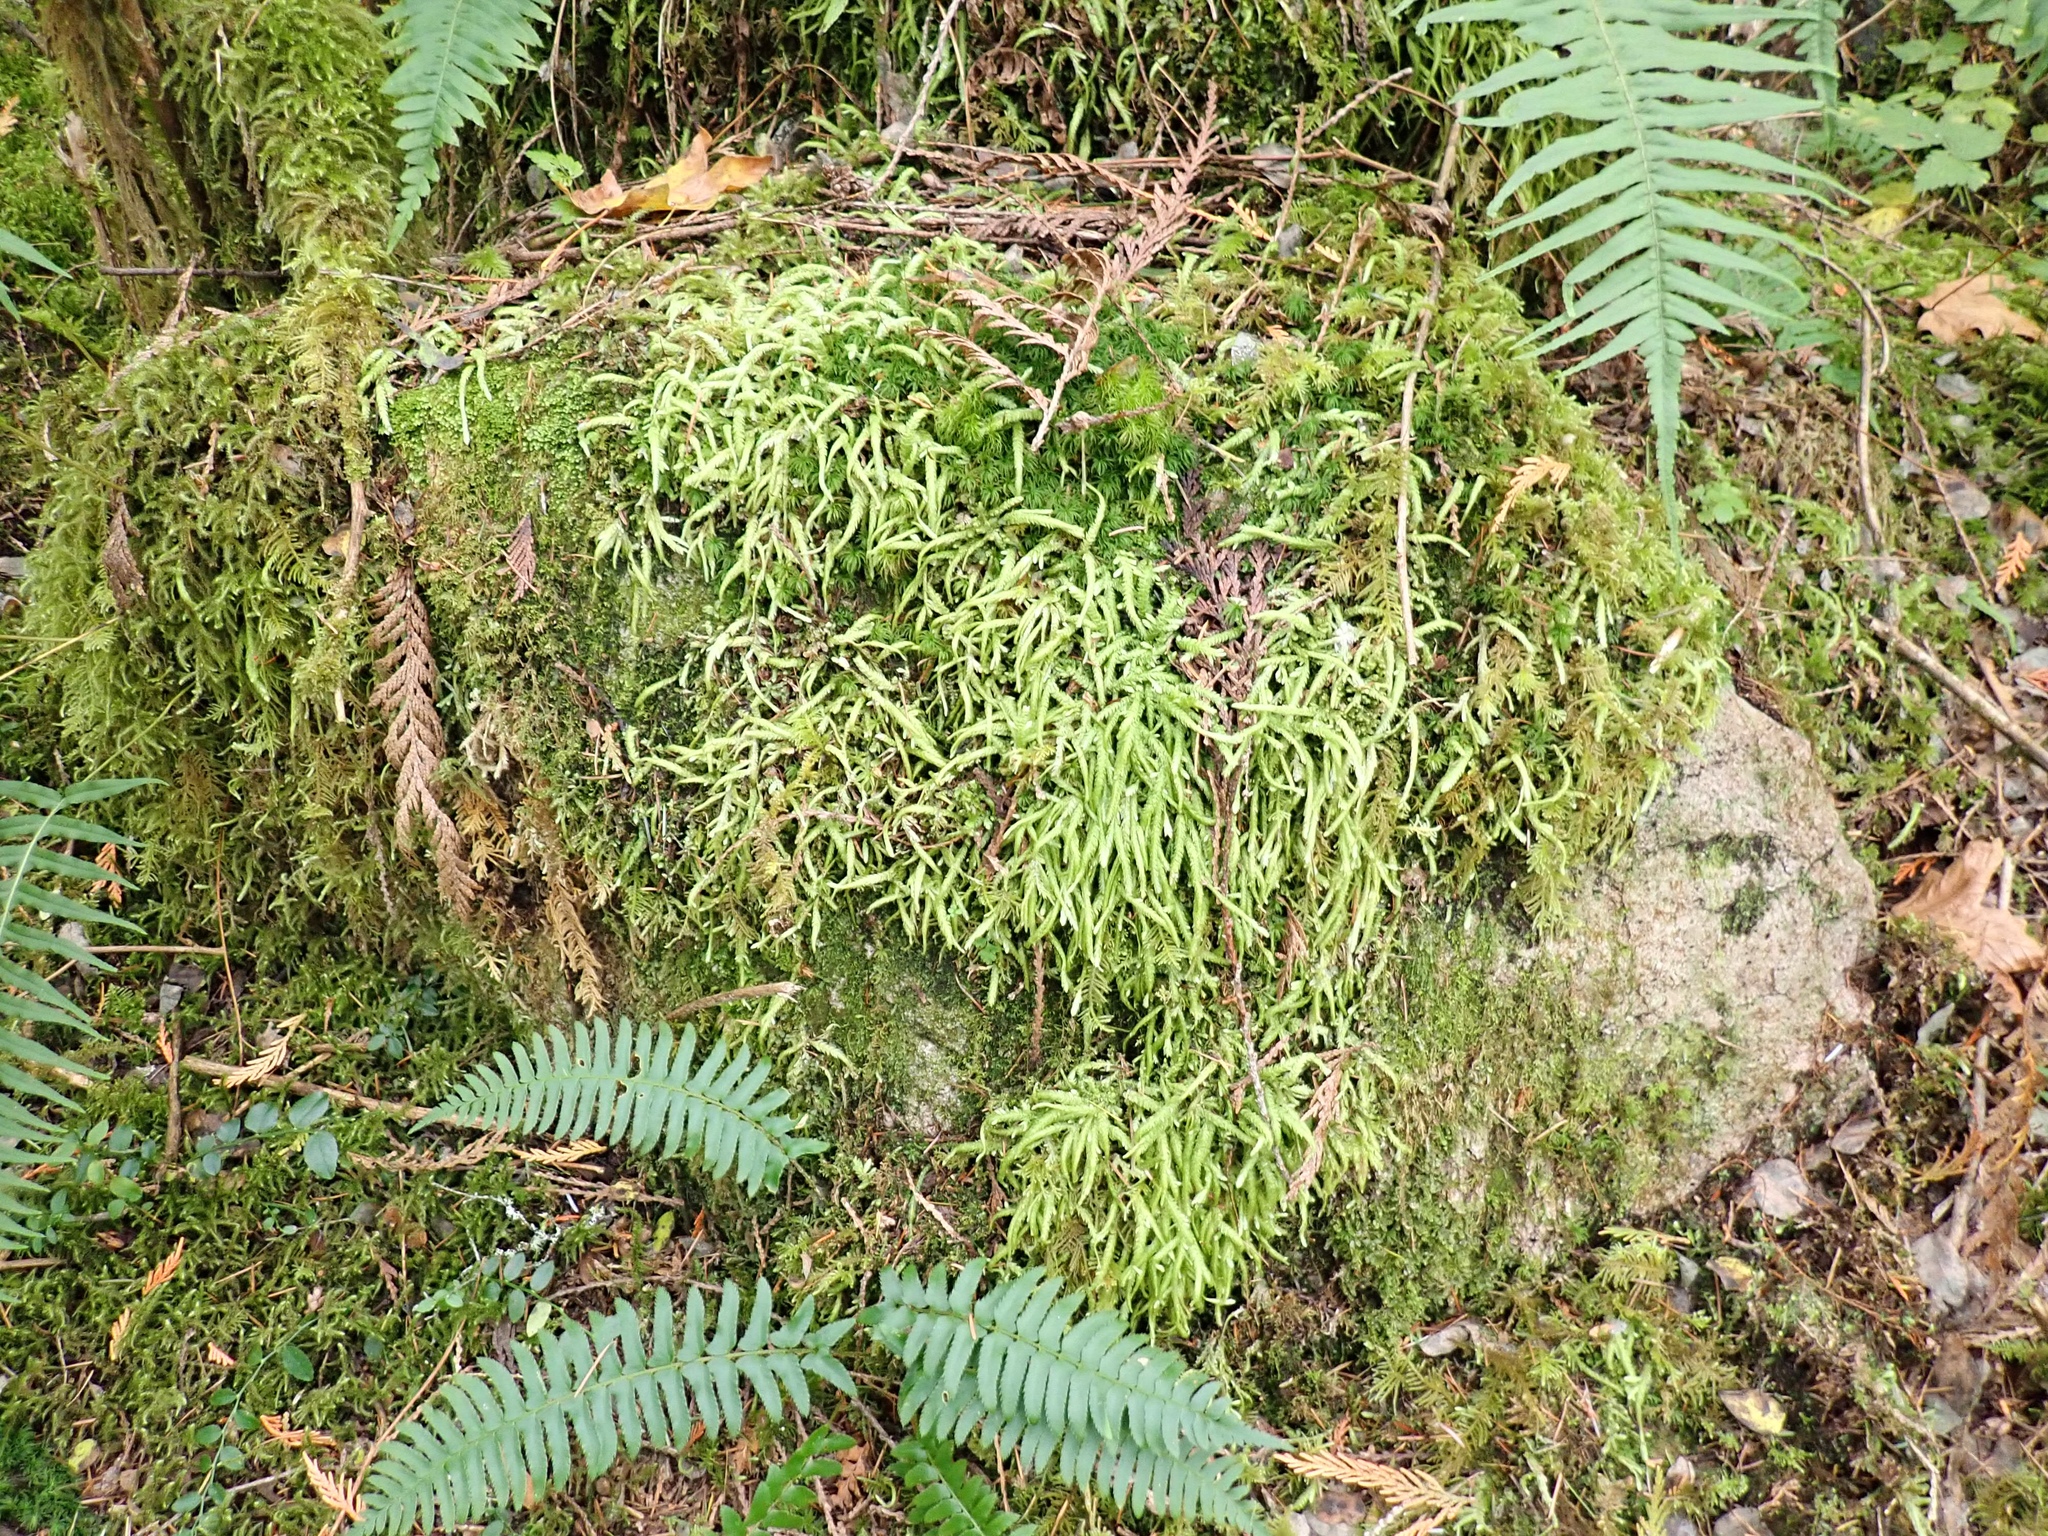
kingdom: Plantae
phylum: Bryophyta
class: Bryopsida
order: Hypnales
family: Plagiotheciaceae
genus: Plagiothecium
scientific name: Plagiothecium undulatum
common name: Waved silk-moss
